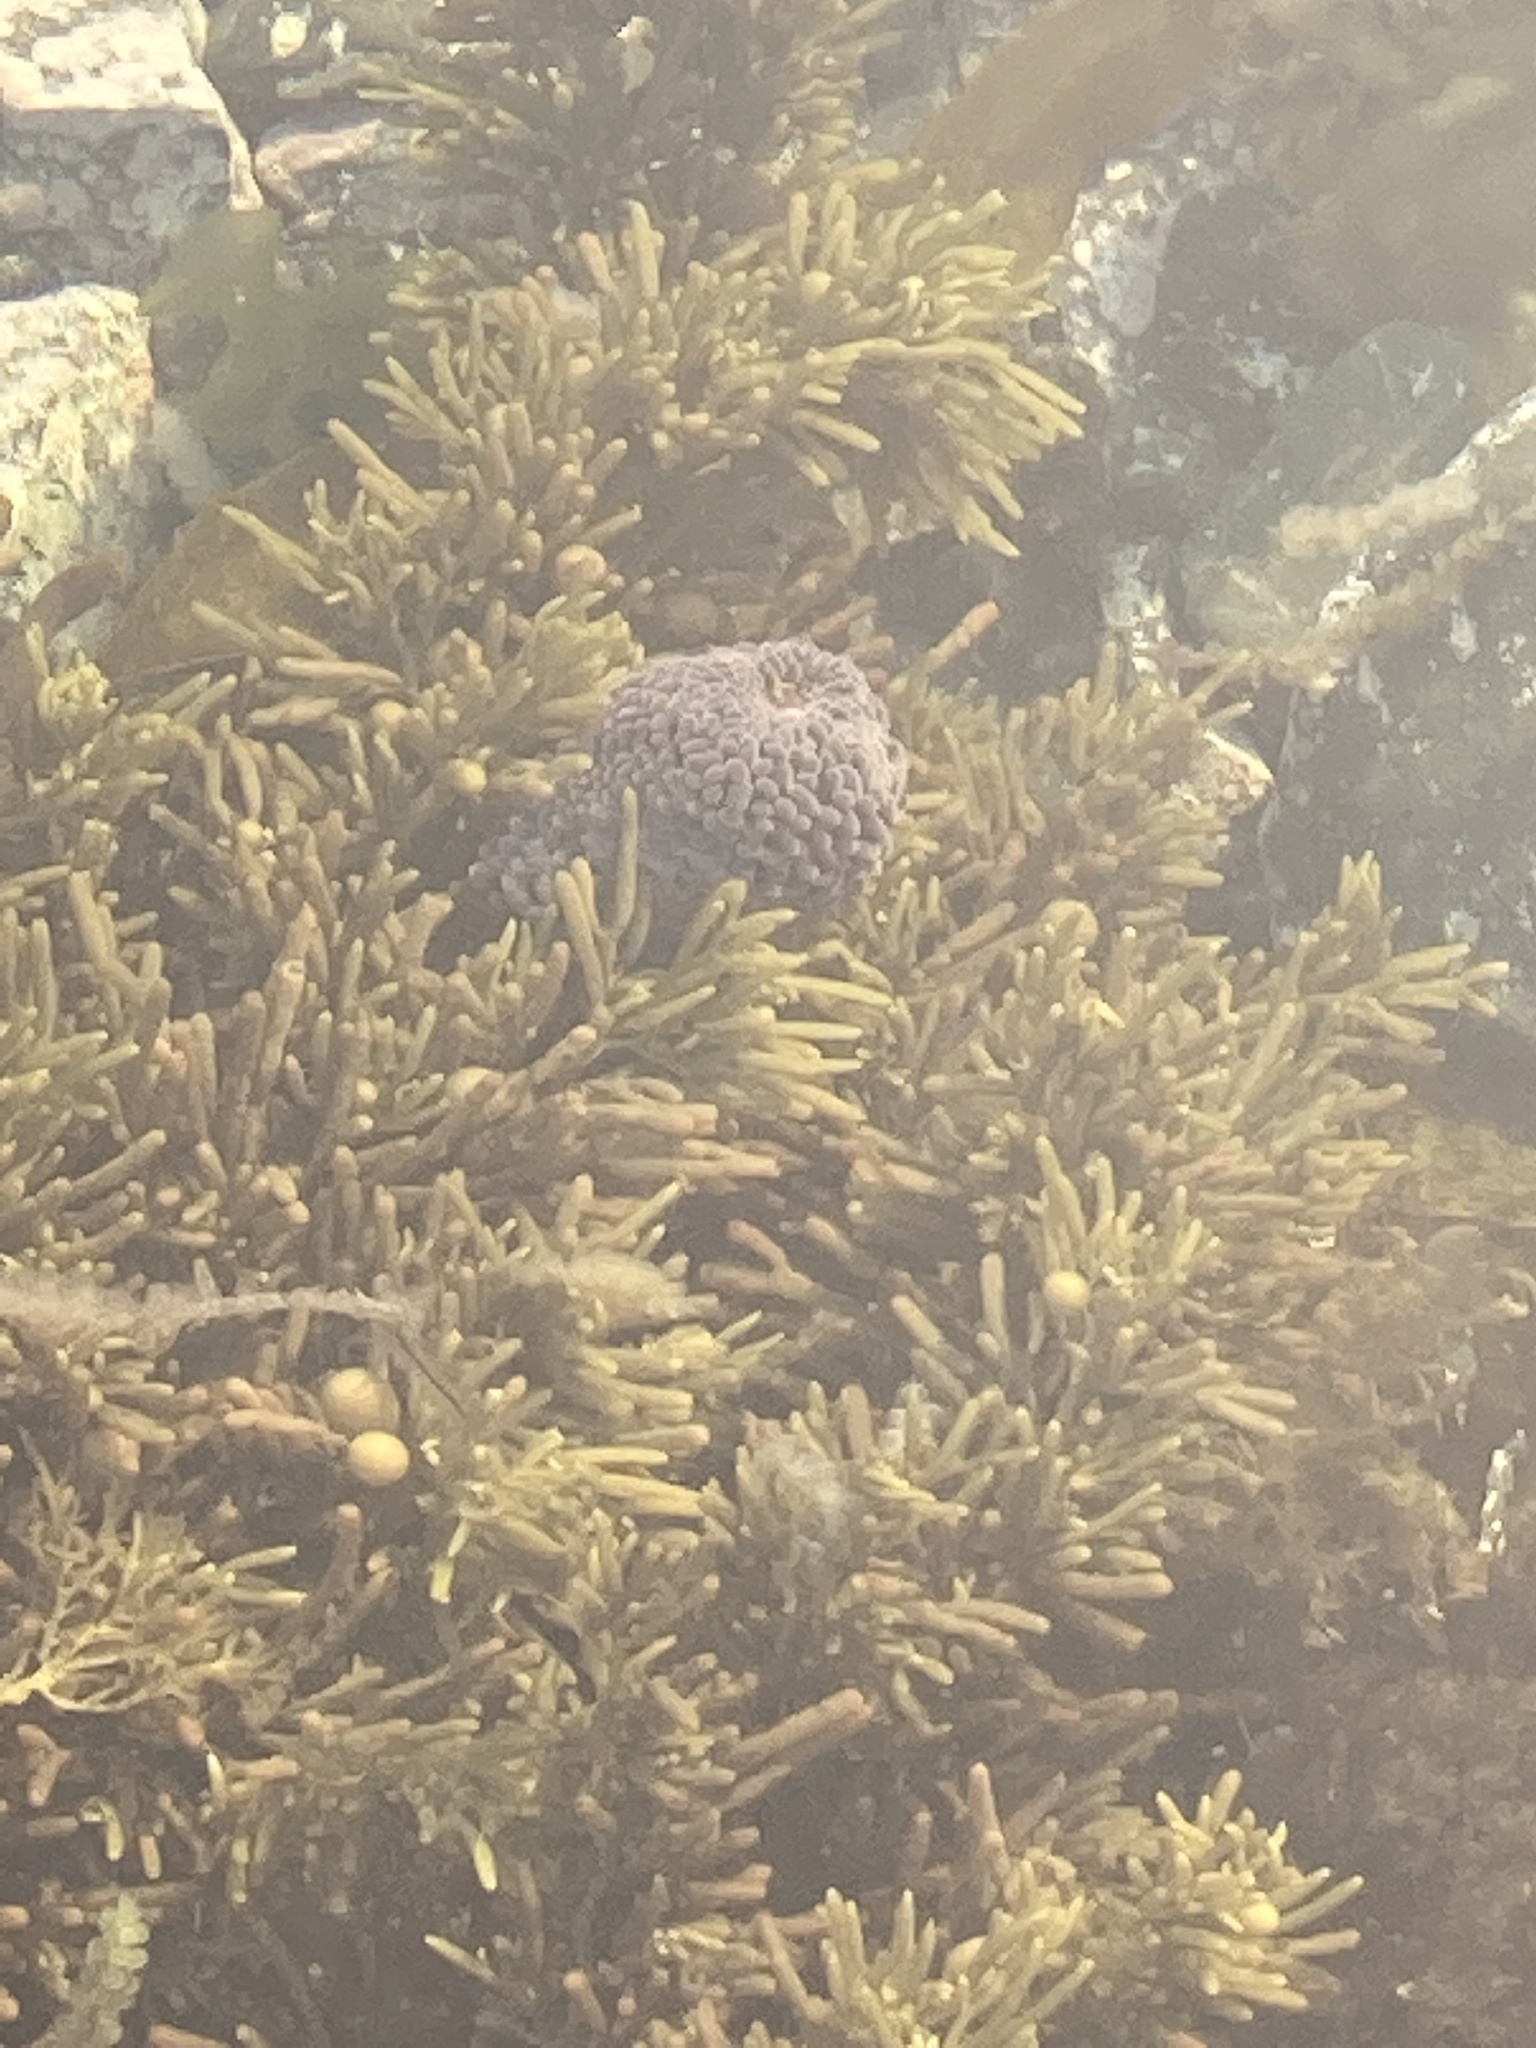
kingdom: Animalia
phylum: Cnidaria
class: Anthozoa
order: Actiniaria
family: Actiniidae
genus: Phlyctenactis
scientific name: Phlyctenactis tuberculosa
